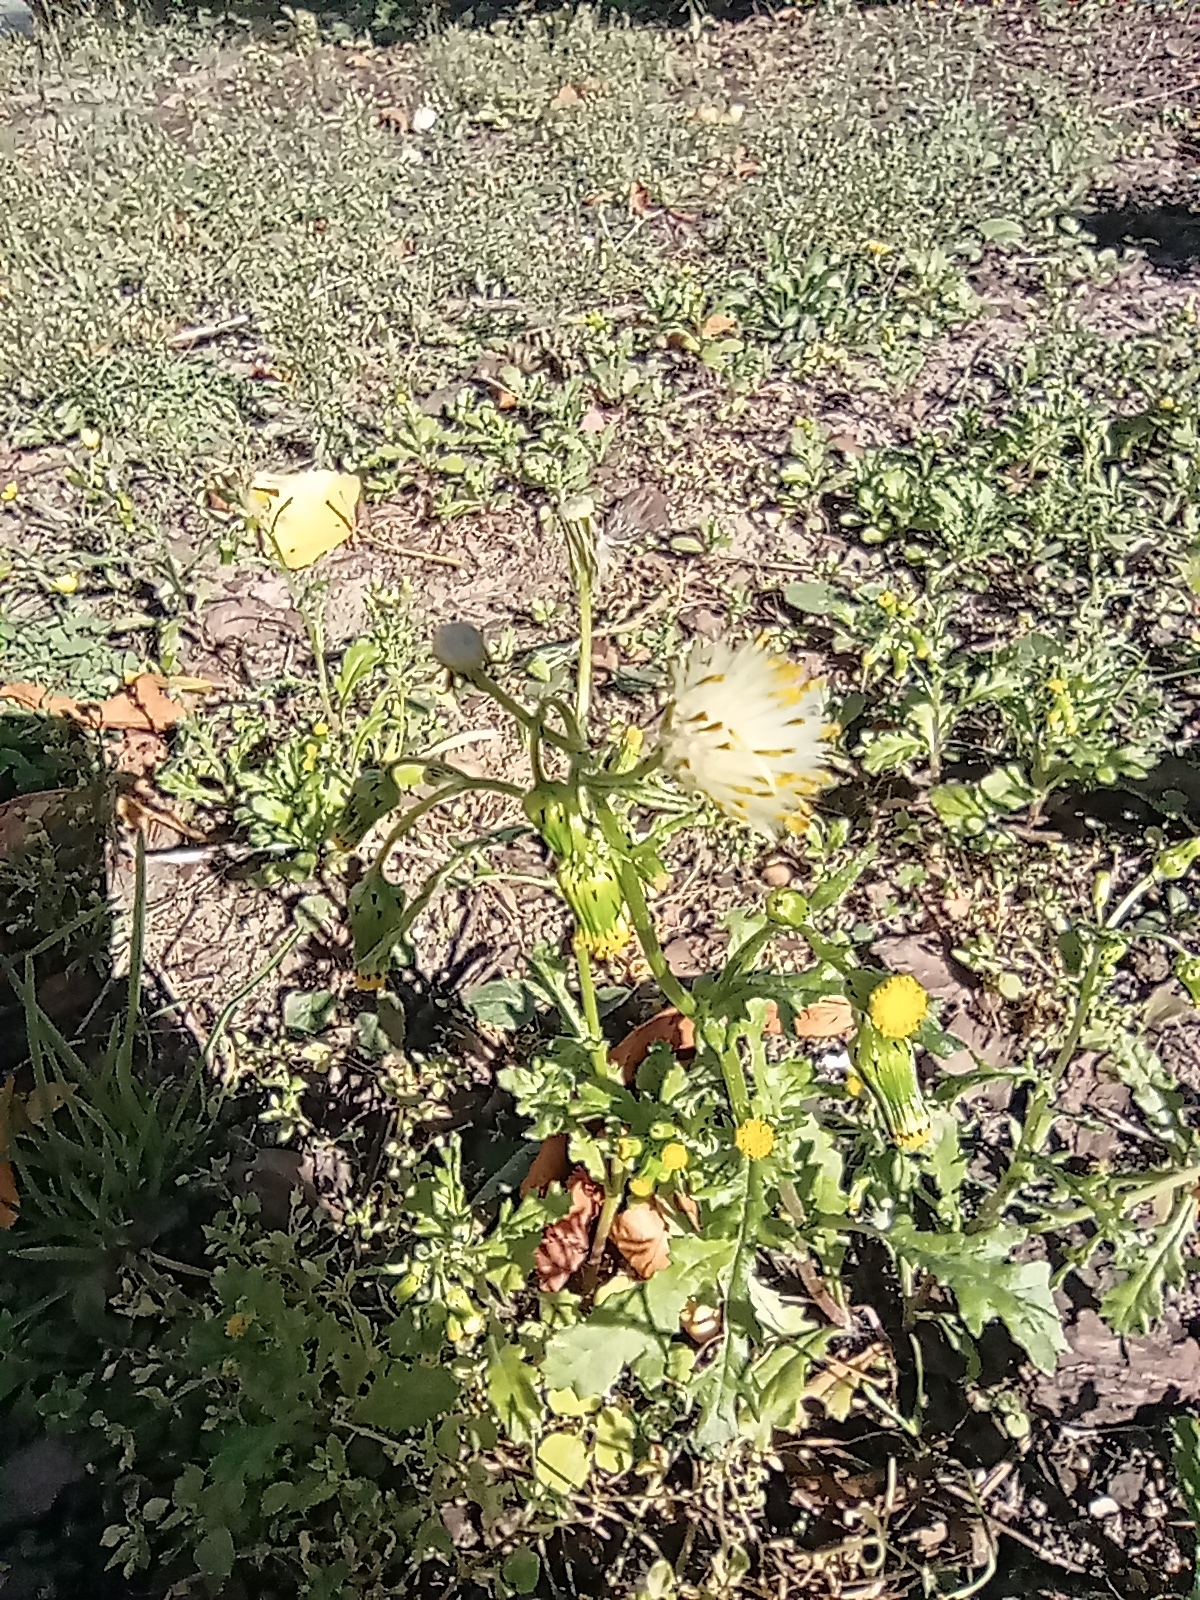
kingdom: Plantae
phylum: Tracheophyta
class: Magnoliopsida
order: Asterales
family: Asteraceae
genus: Senecio
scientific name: Senecio vulgaris
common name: Old-man-in-the-spring
